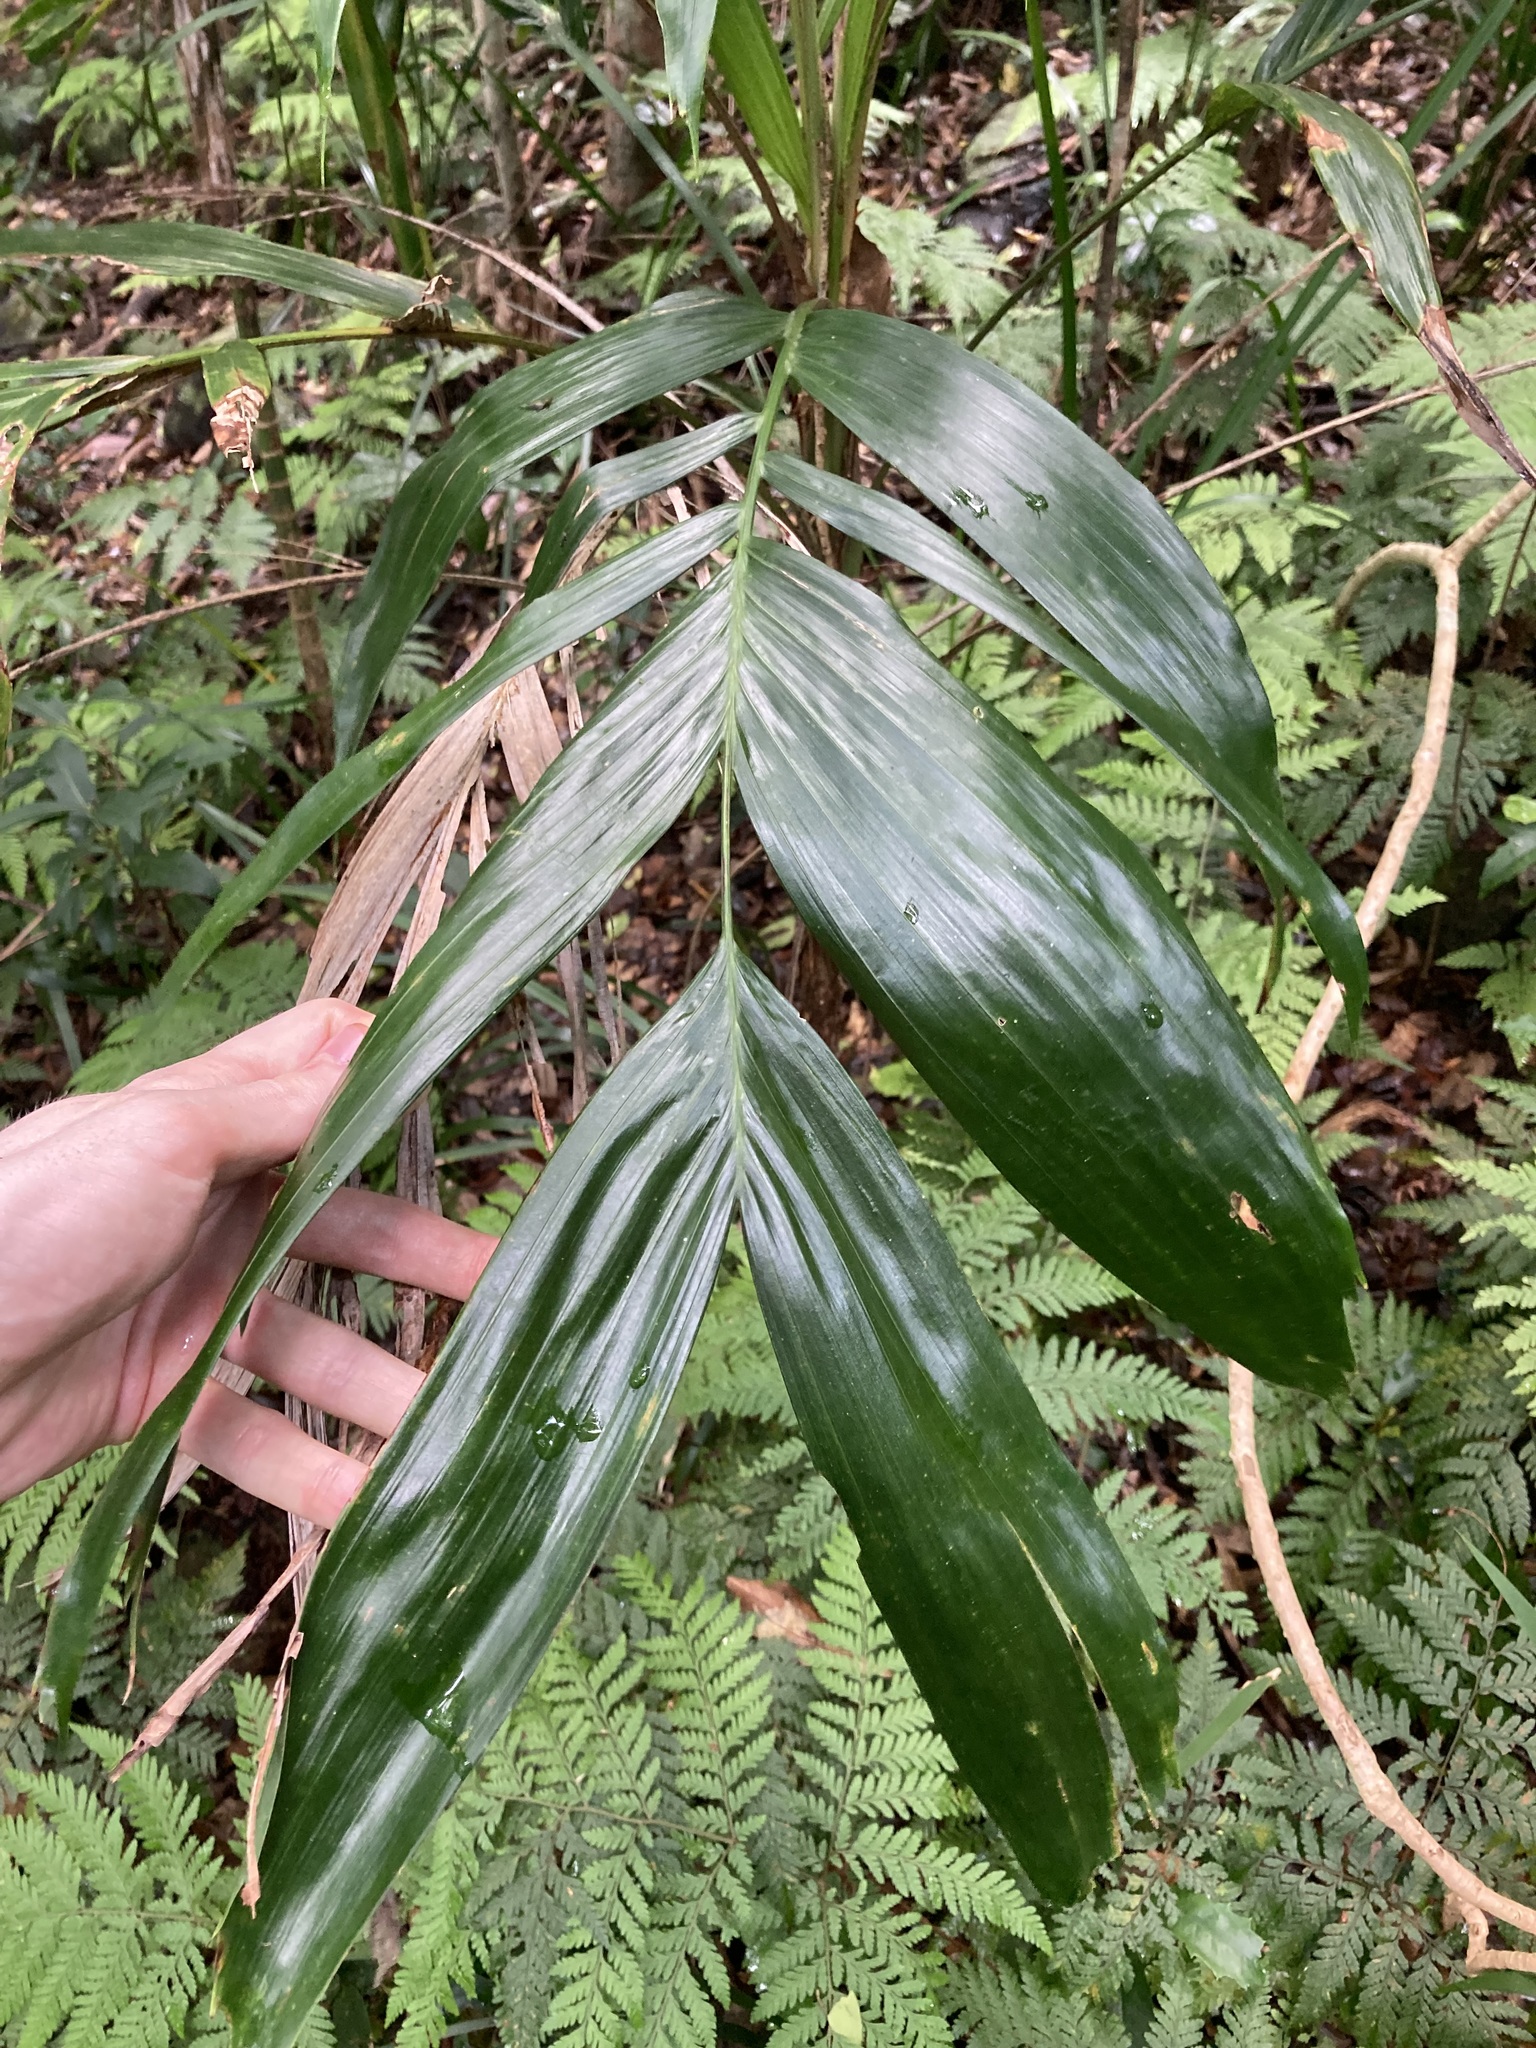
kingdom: Plantae
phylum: Tracheophyta
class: Liliopsida
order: Arecales
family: Arecaceae
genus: Linospadix
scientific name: Linospadix monostachyus
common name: Walking-stick palm
